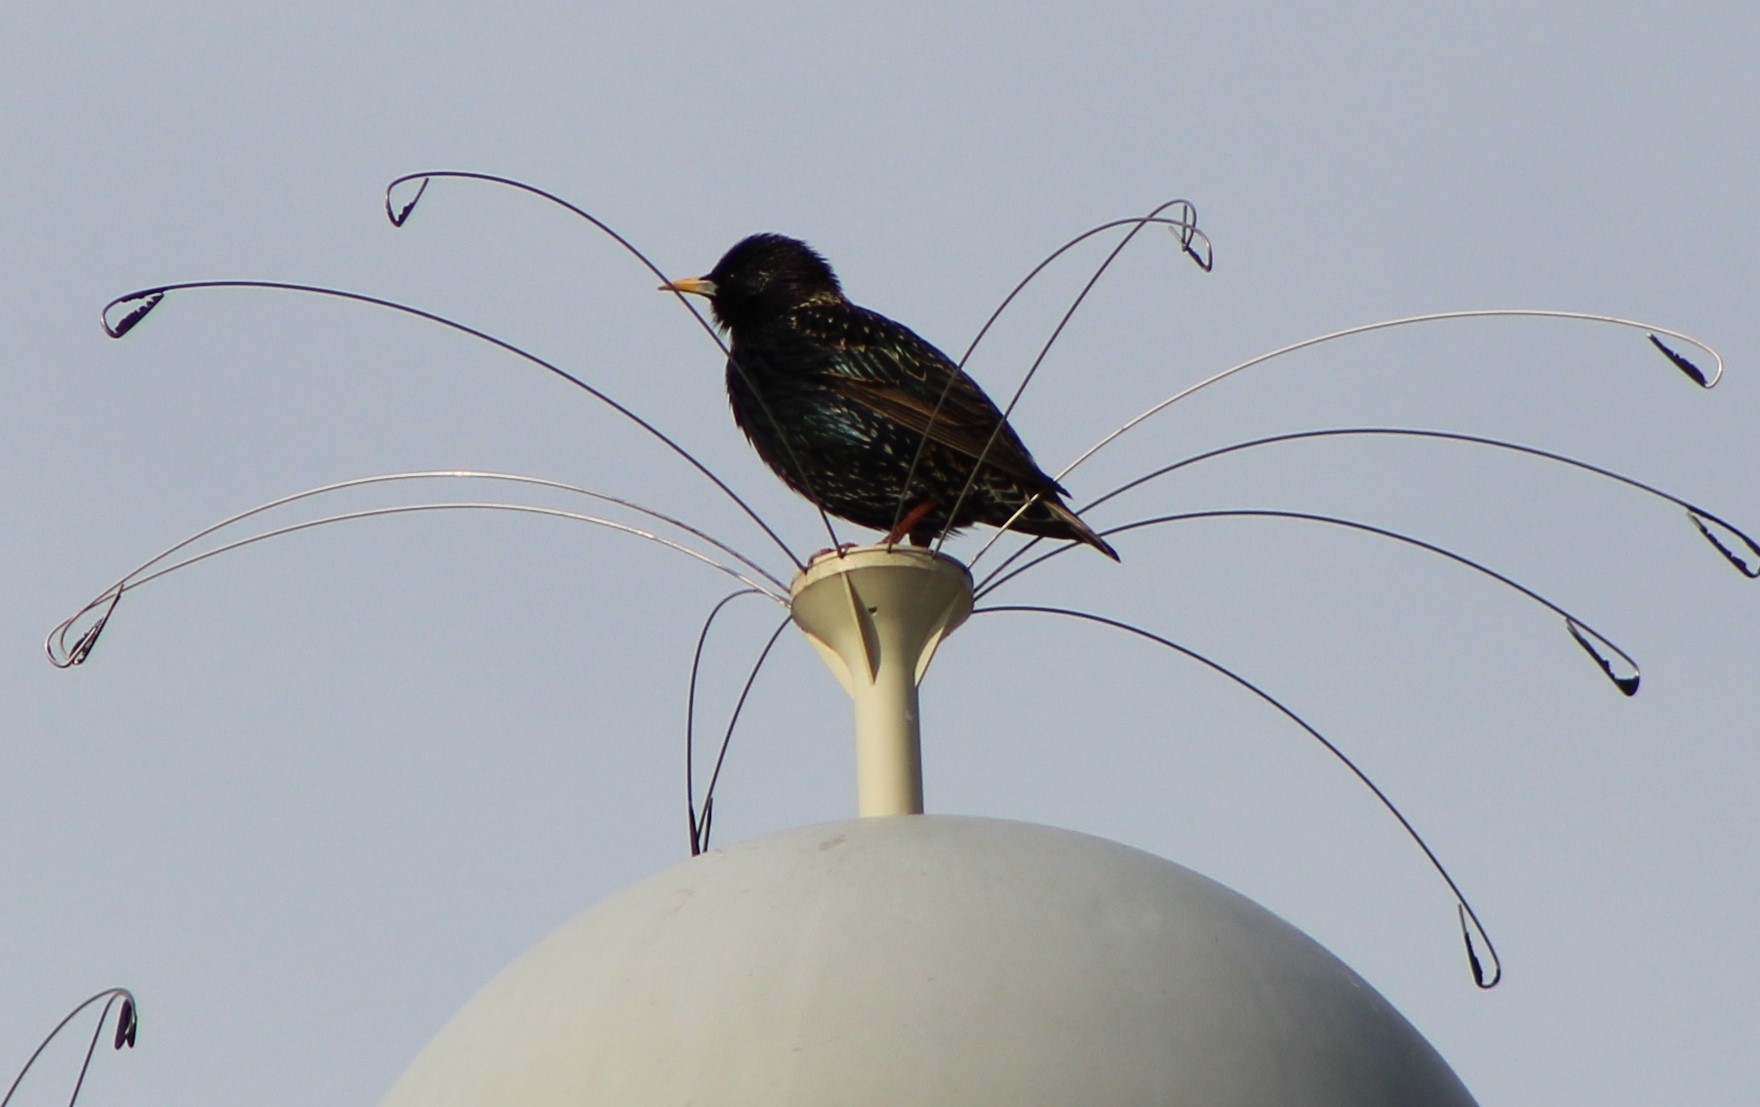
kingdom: Animalia
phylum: Chordata
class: Aves
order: Passeriformes
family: Sturnidae
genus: Sturnus
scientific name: Sturnus vulgaris
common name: Common starling
